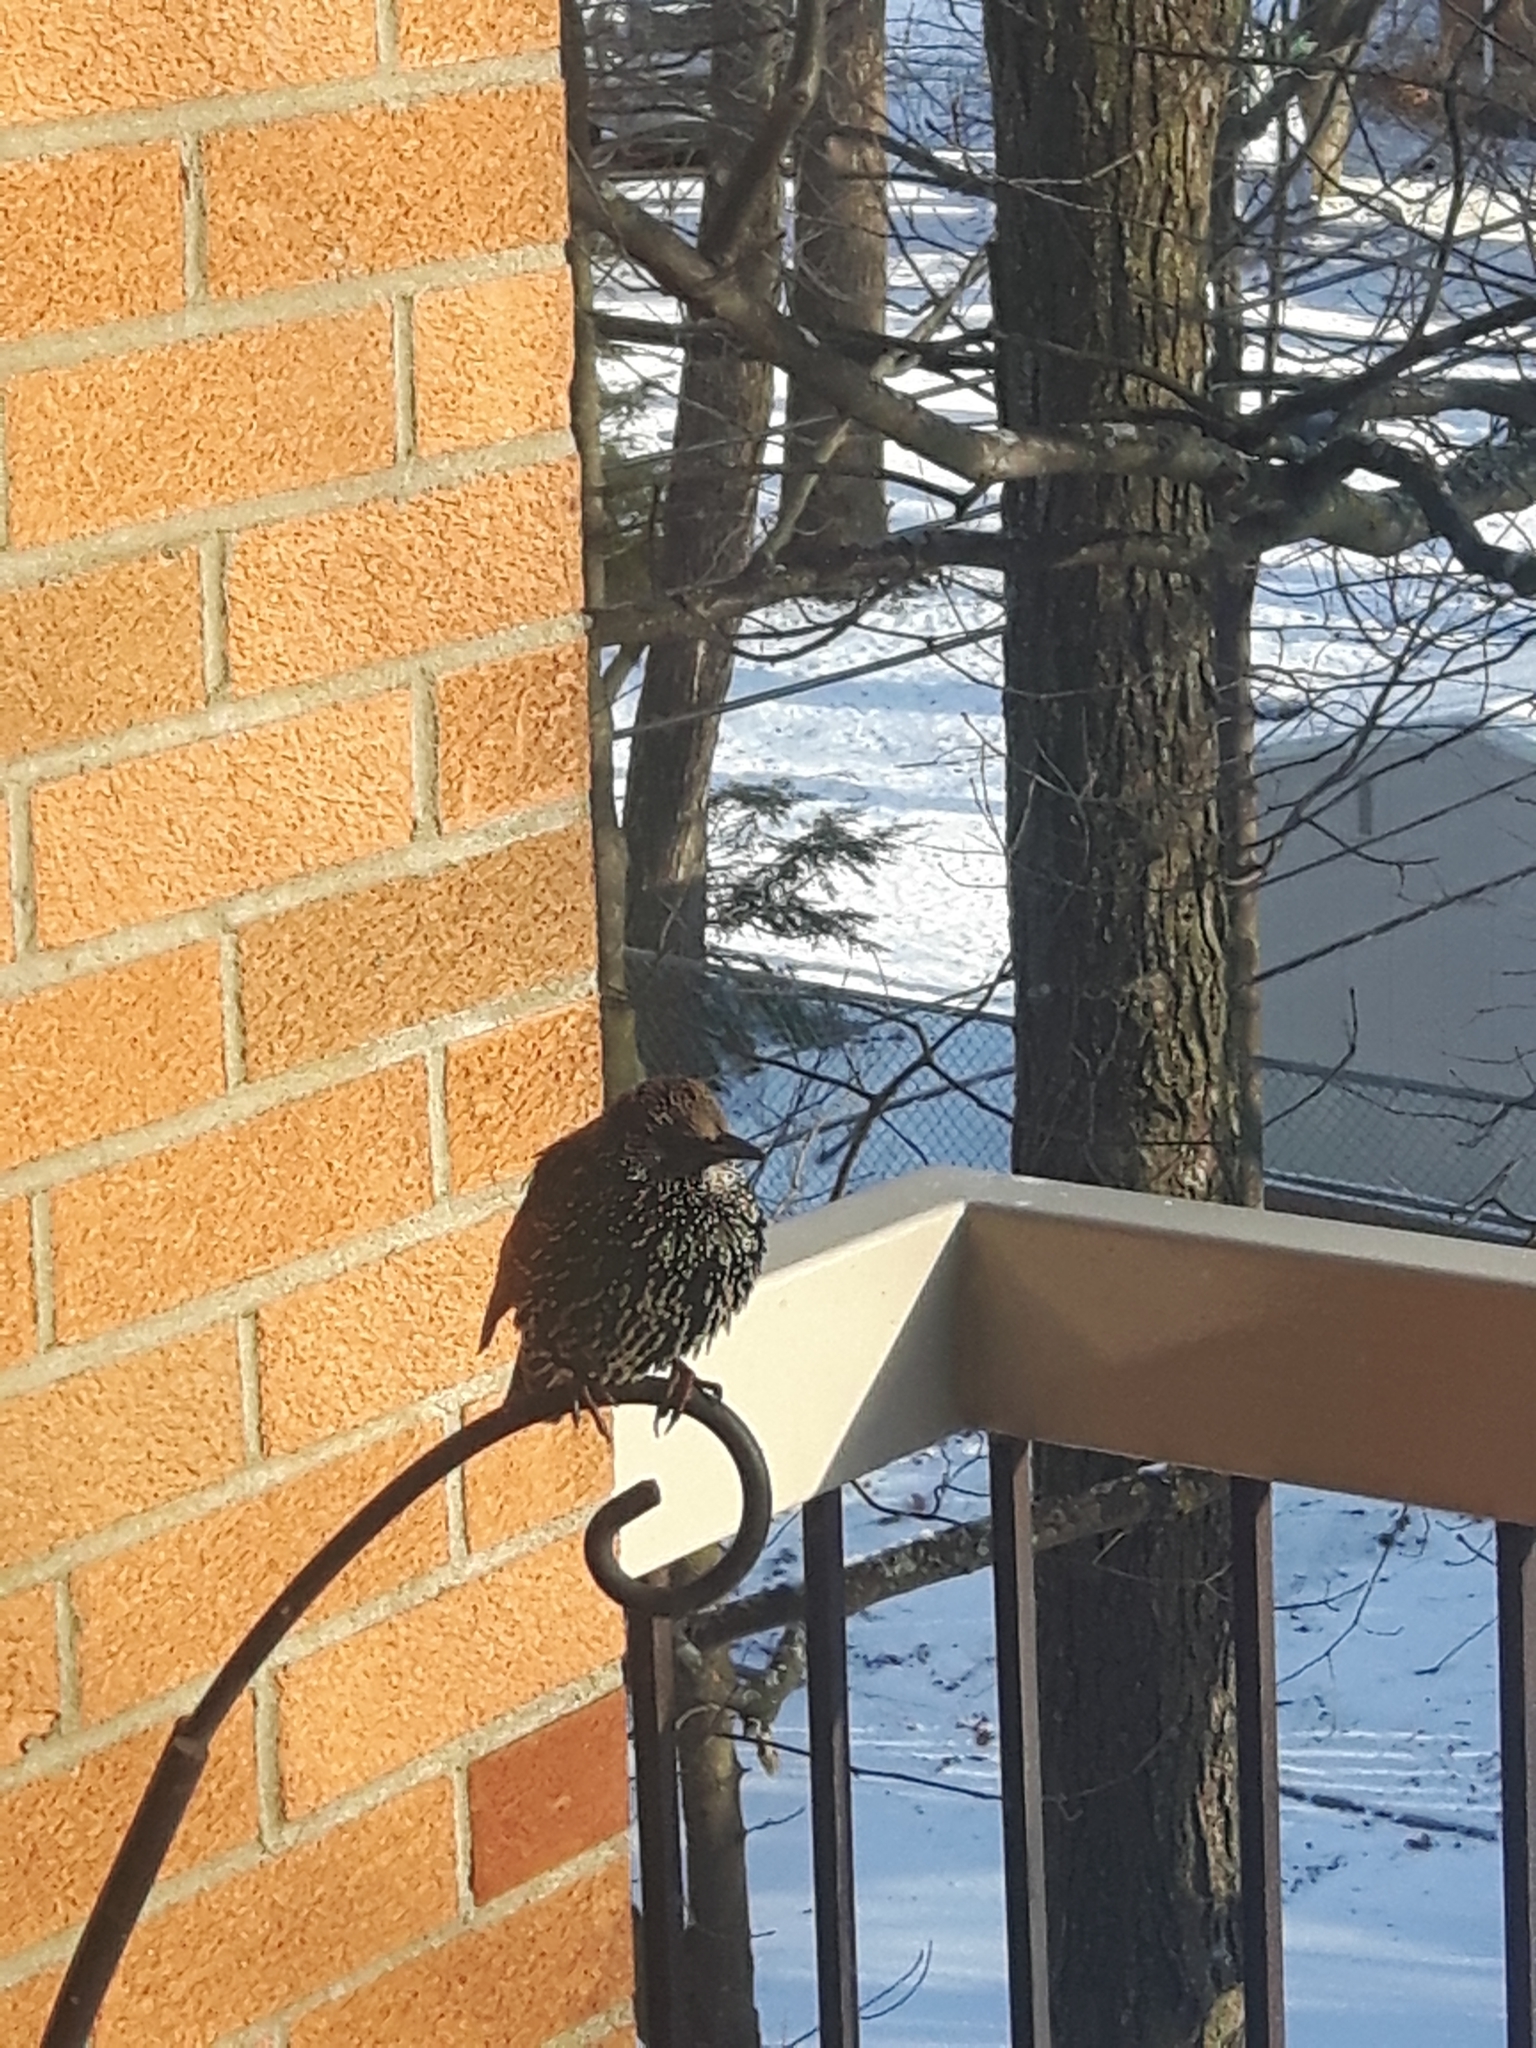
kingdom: Animalia
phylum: Chordata
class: Aves
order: Passeriformes
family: Sturnidae
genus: Sturnus
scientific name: Sturnus vulgaris
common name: Common starling
